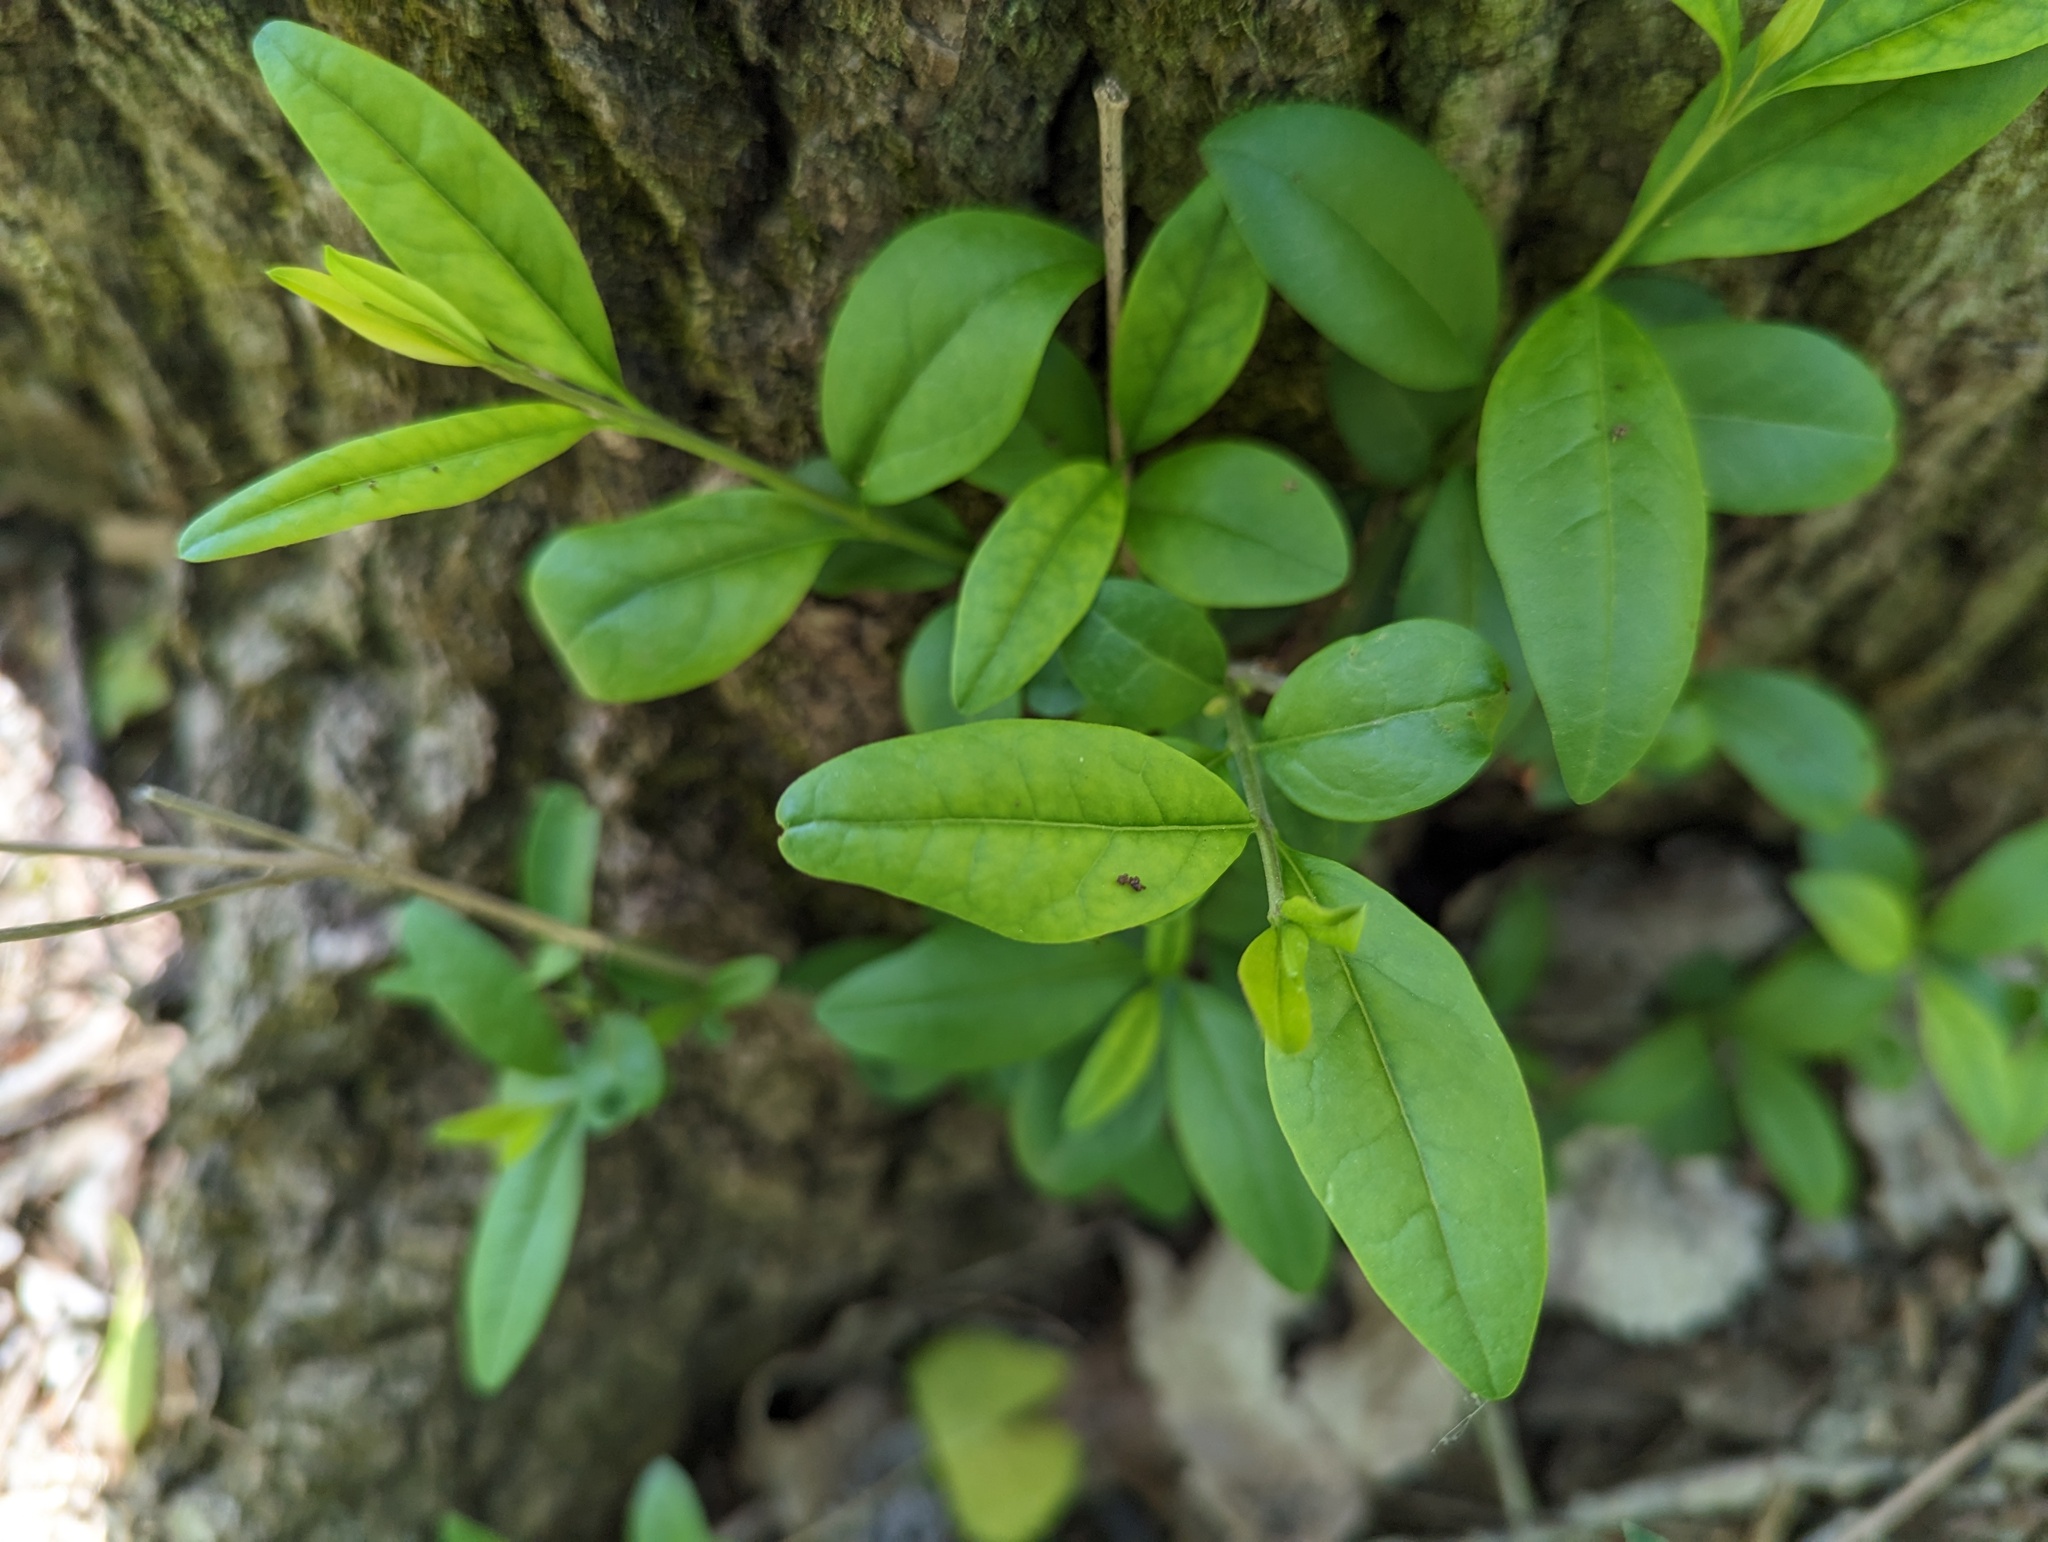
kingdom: Plantae
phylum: Tracheophyta
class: Magnoliopsida
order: Lamiales
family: Oleaceae
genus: Ligustrum
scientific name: Ligustrum vulgare
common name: Wild privet
